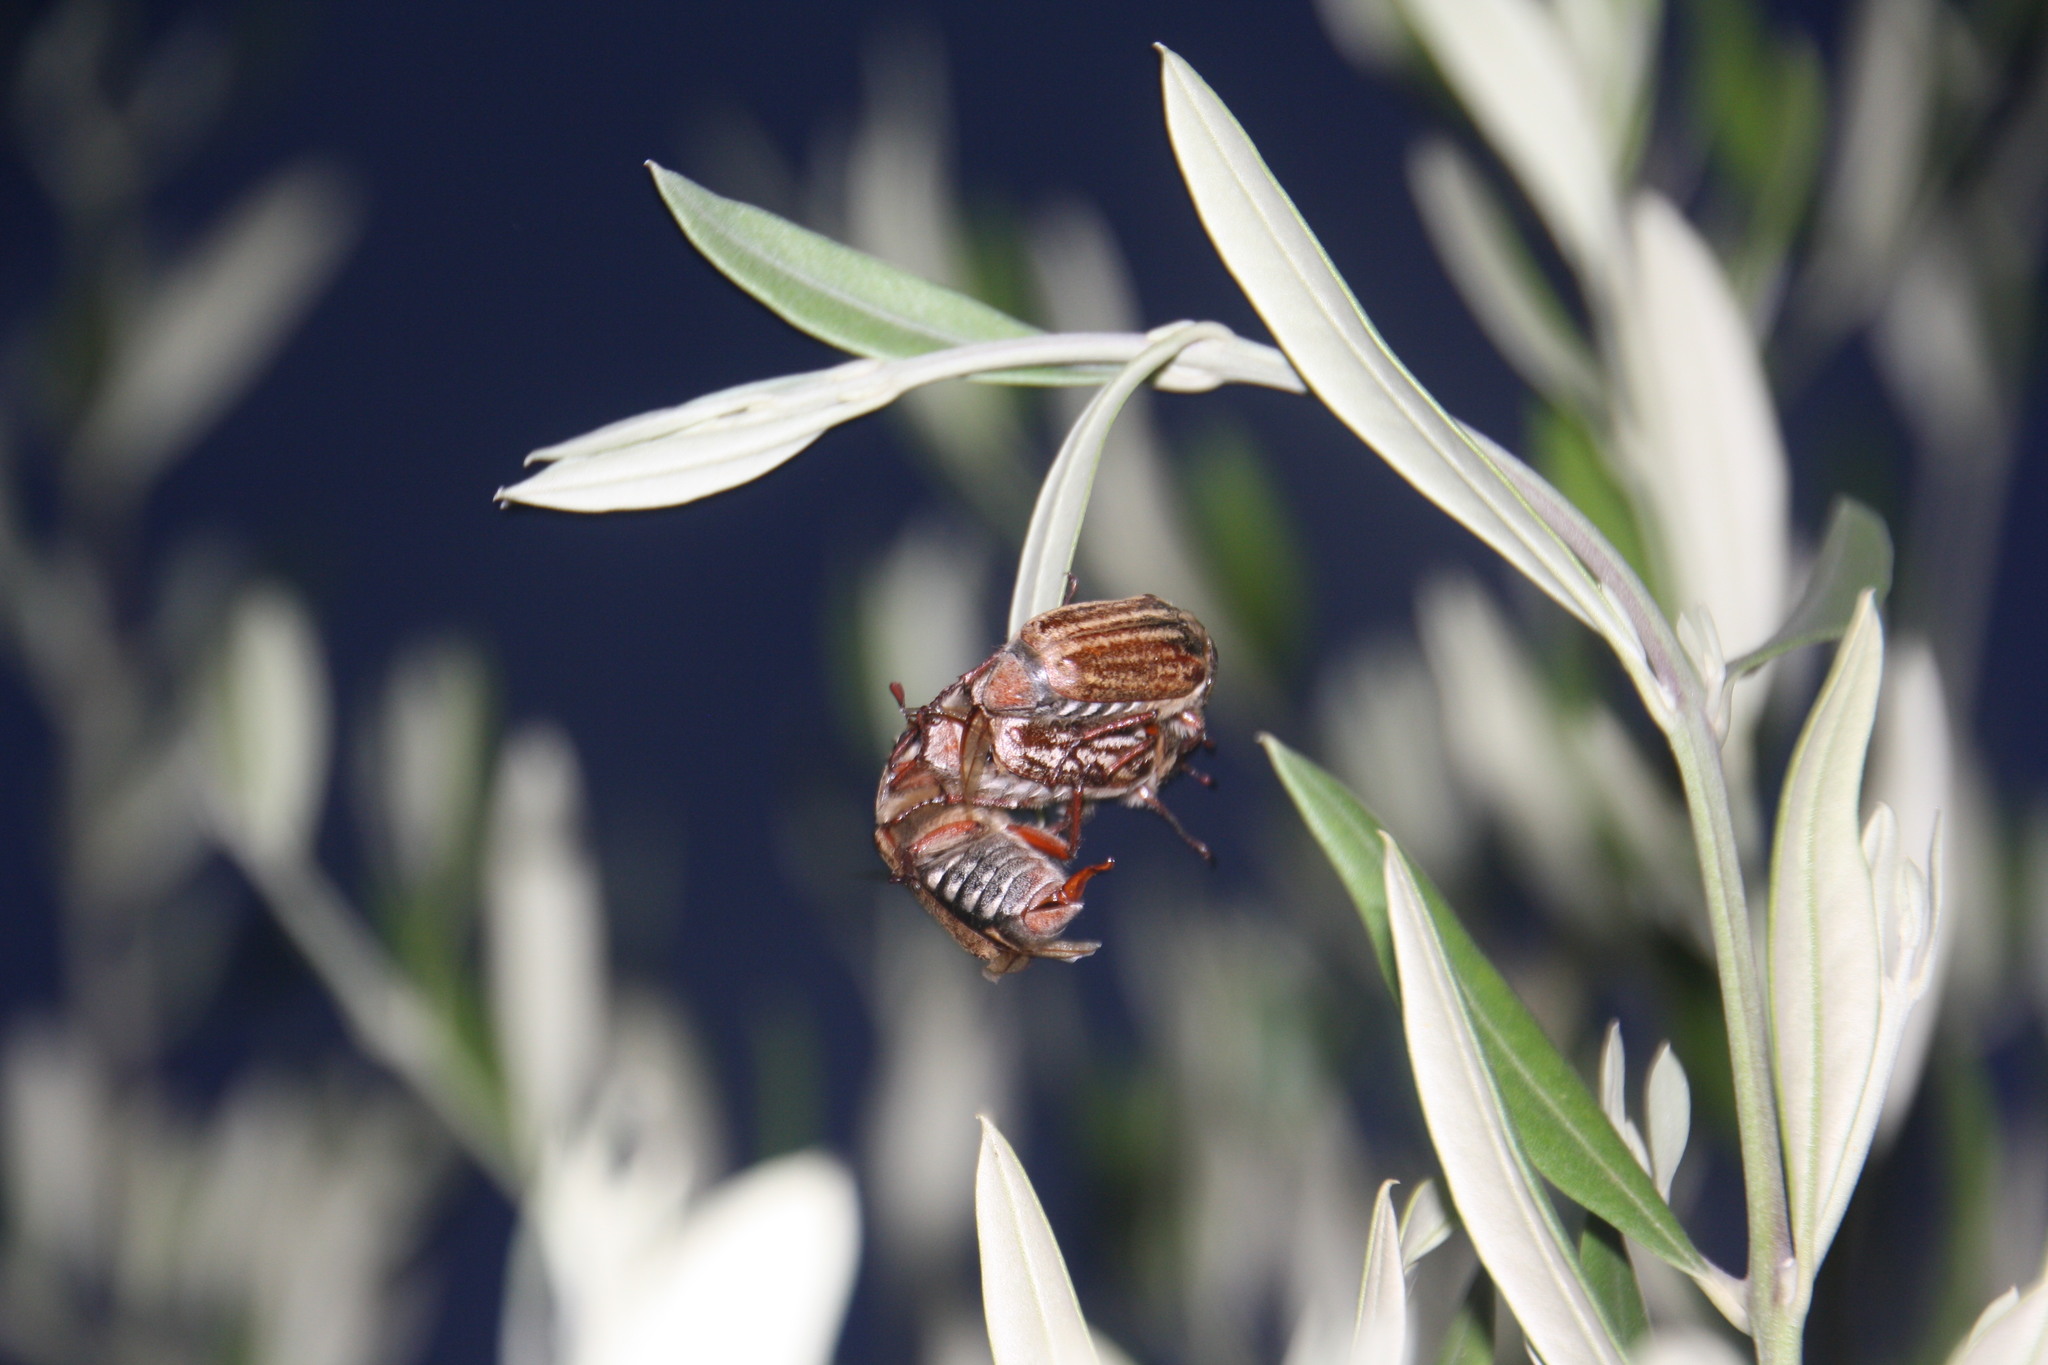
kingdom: Animalia
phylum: Arthropoda
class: Insecta
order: Coleoptera
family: Scarabaeidae
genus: Anoxia
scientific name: Anoxia australis
